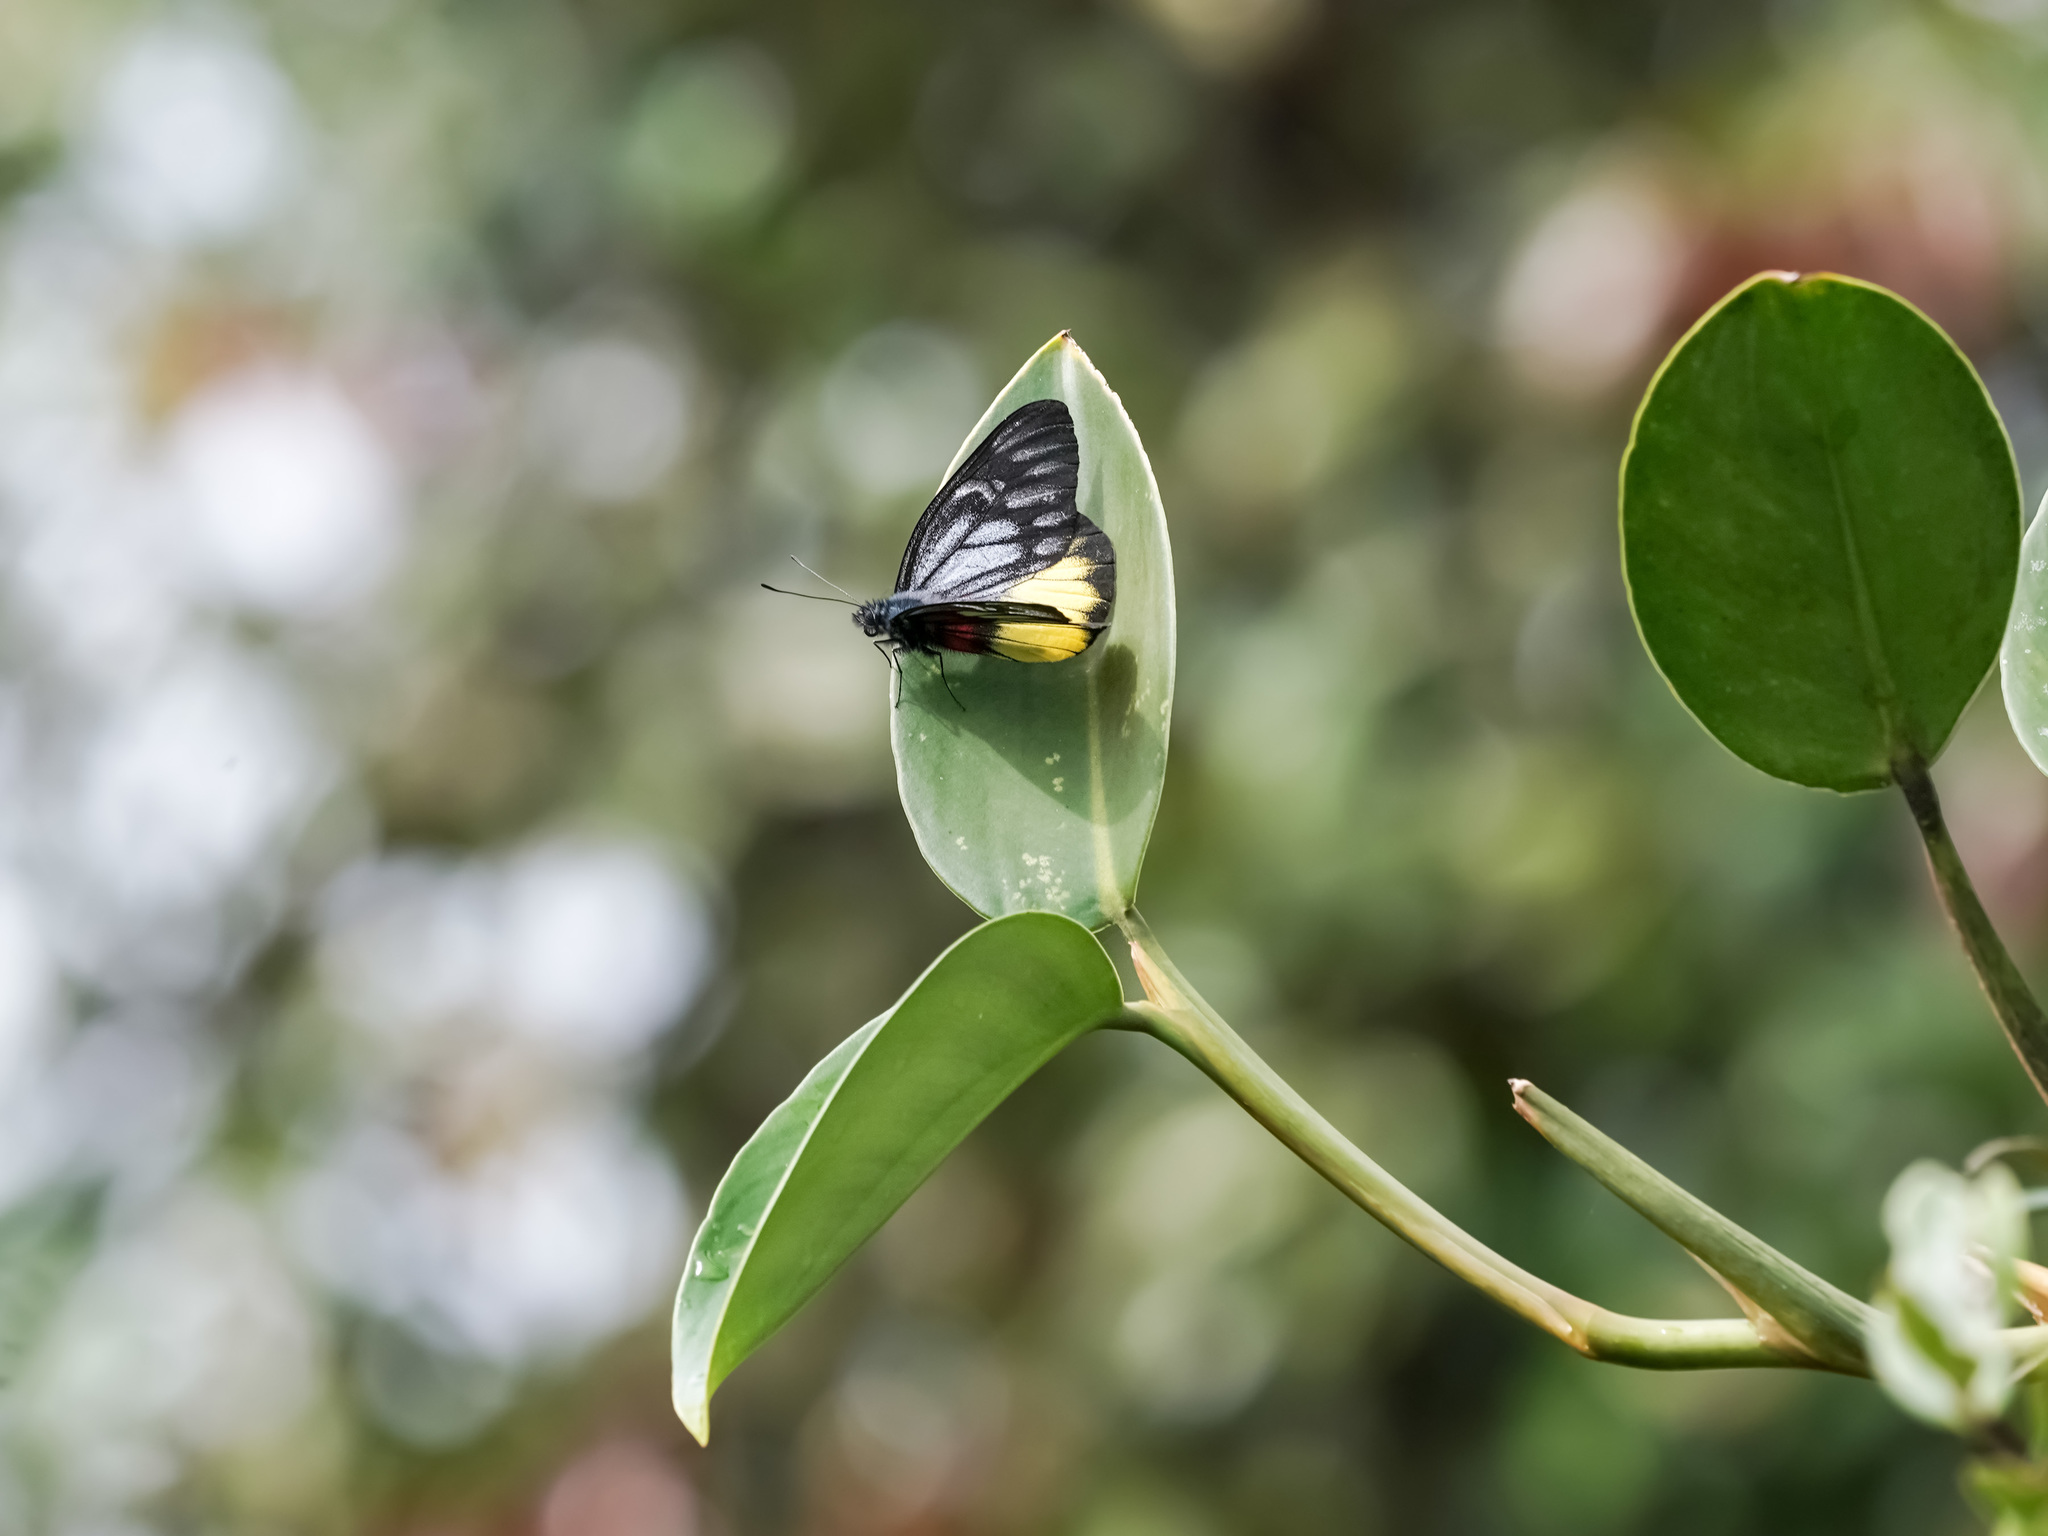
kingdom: Animalia
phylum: Arthropoda
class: Insecta
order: Lepidoptera
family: Pieridae
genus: Delias
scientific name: Delias ninus
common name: Malayan jezebel
